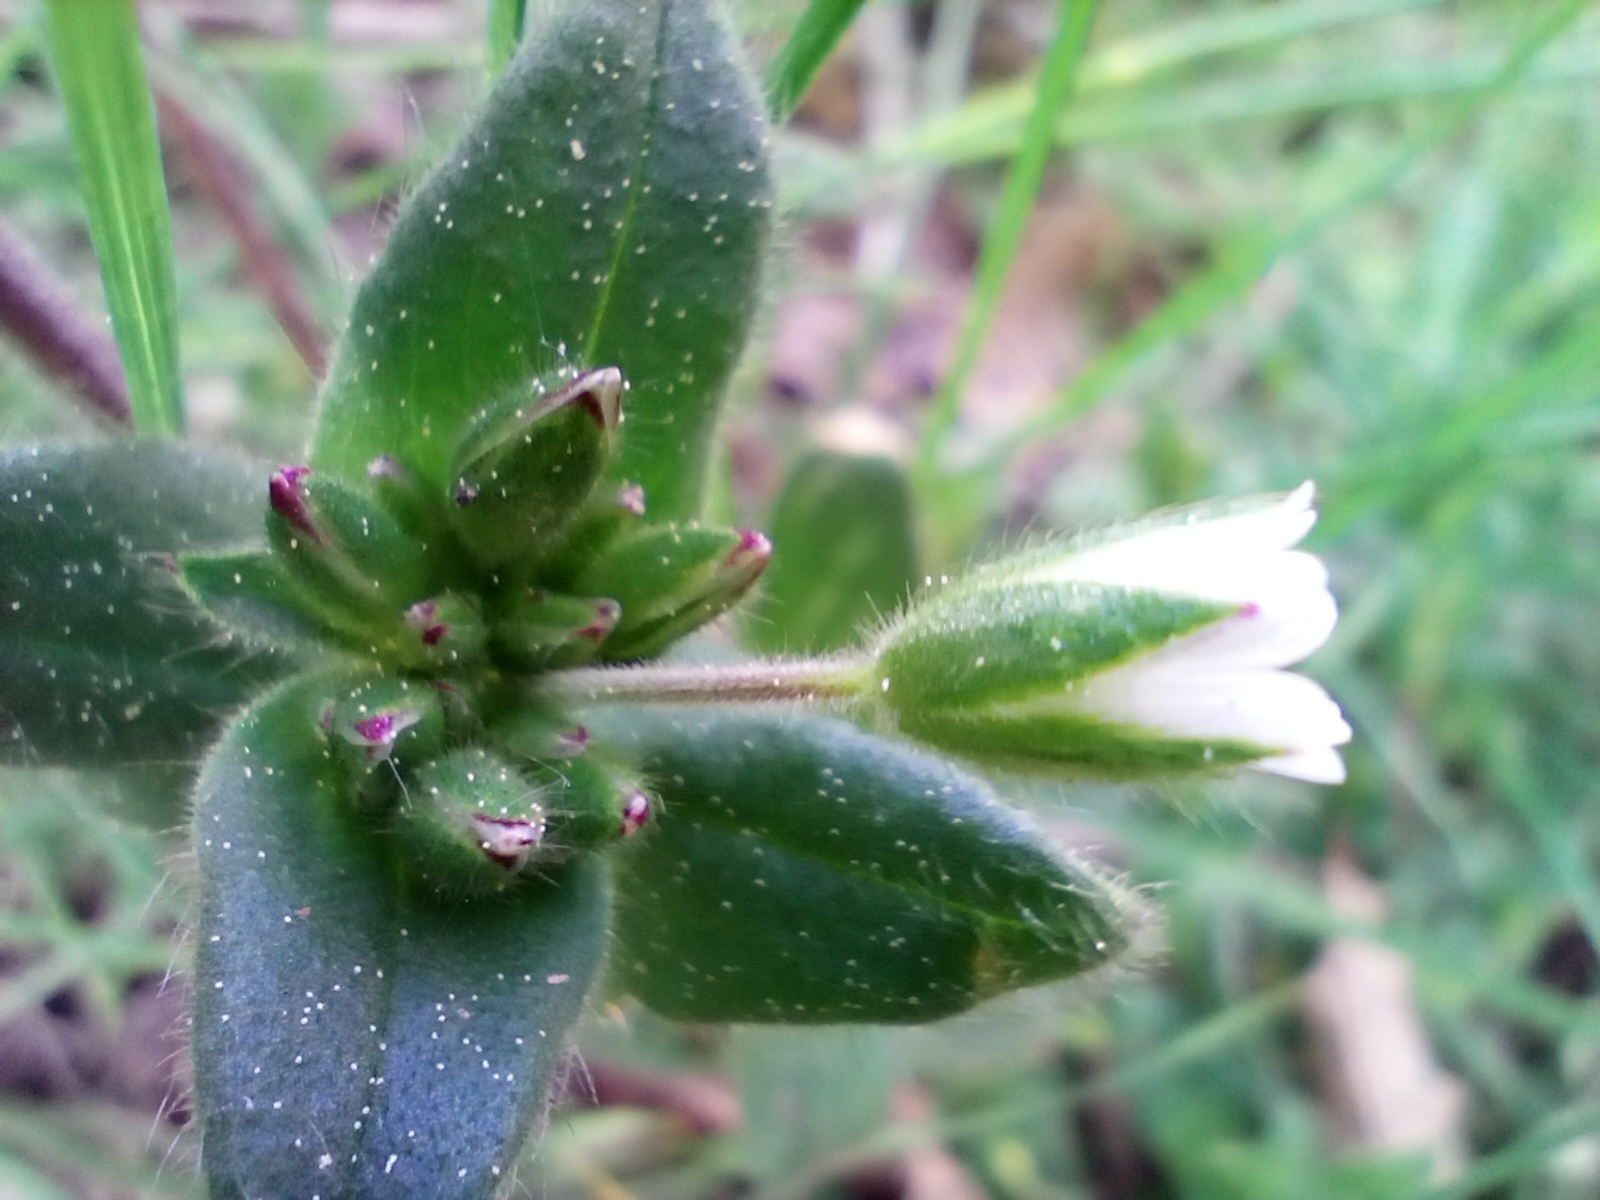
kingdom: Plantae
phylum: Tracheophyta
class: Magnoliopsida
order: Caryophyllales
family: Caryophyllaceae
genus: Cerastium
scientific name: Cerastium holosteoides
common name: Big chickweed
